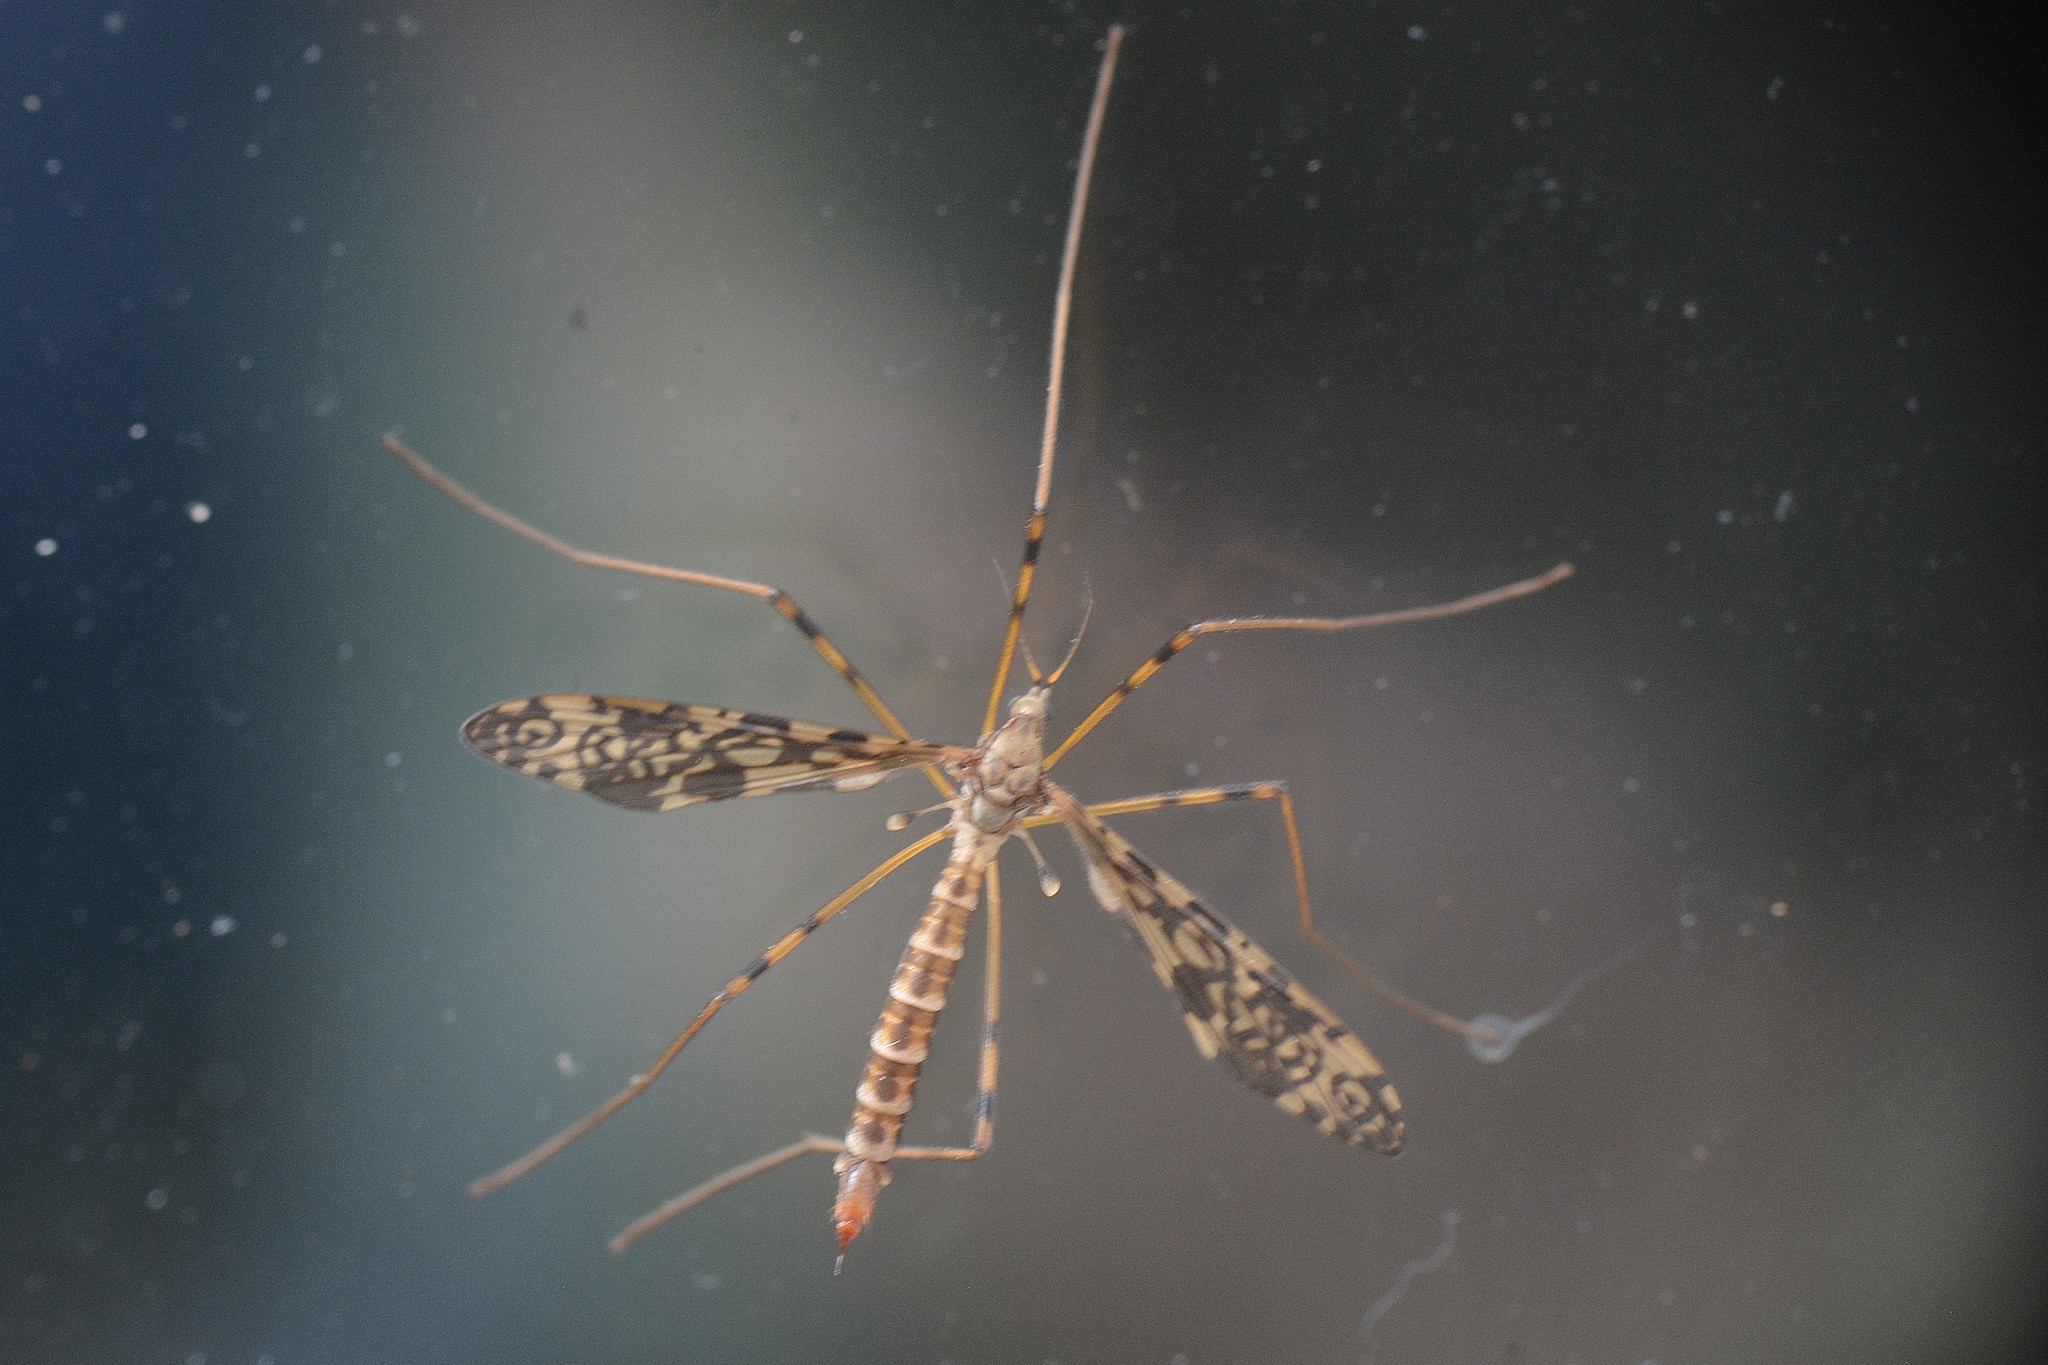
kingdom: Animalia
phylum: Arthropoda
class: Insecta
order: Diptera
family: Limoniidae
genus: Epiphragma
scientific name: Epiphragma ocellare
